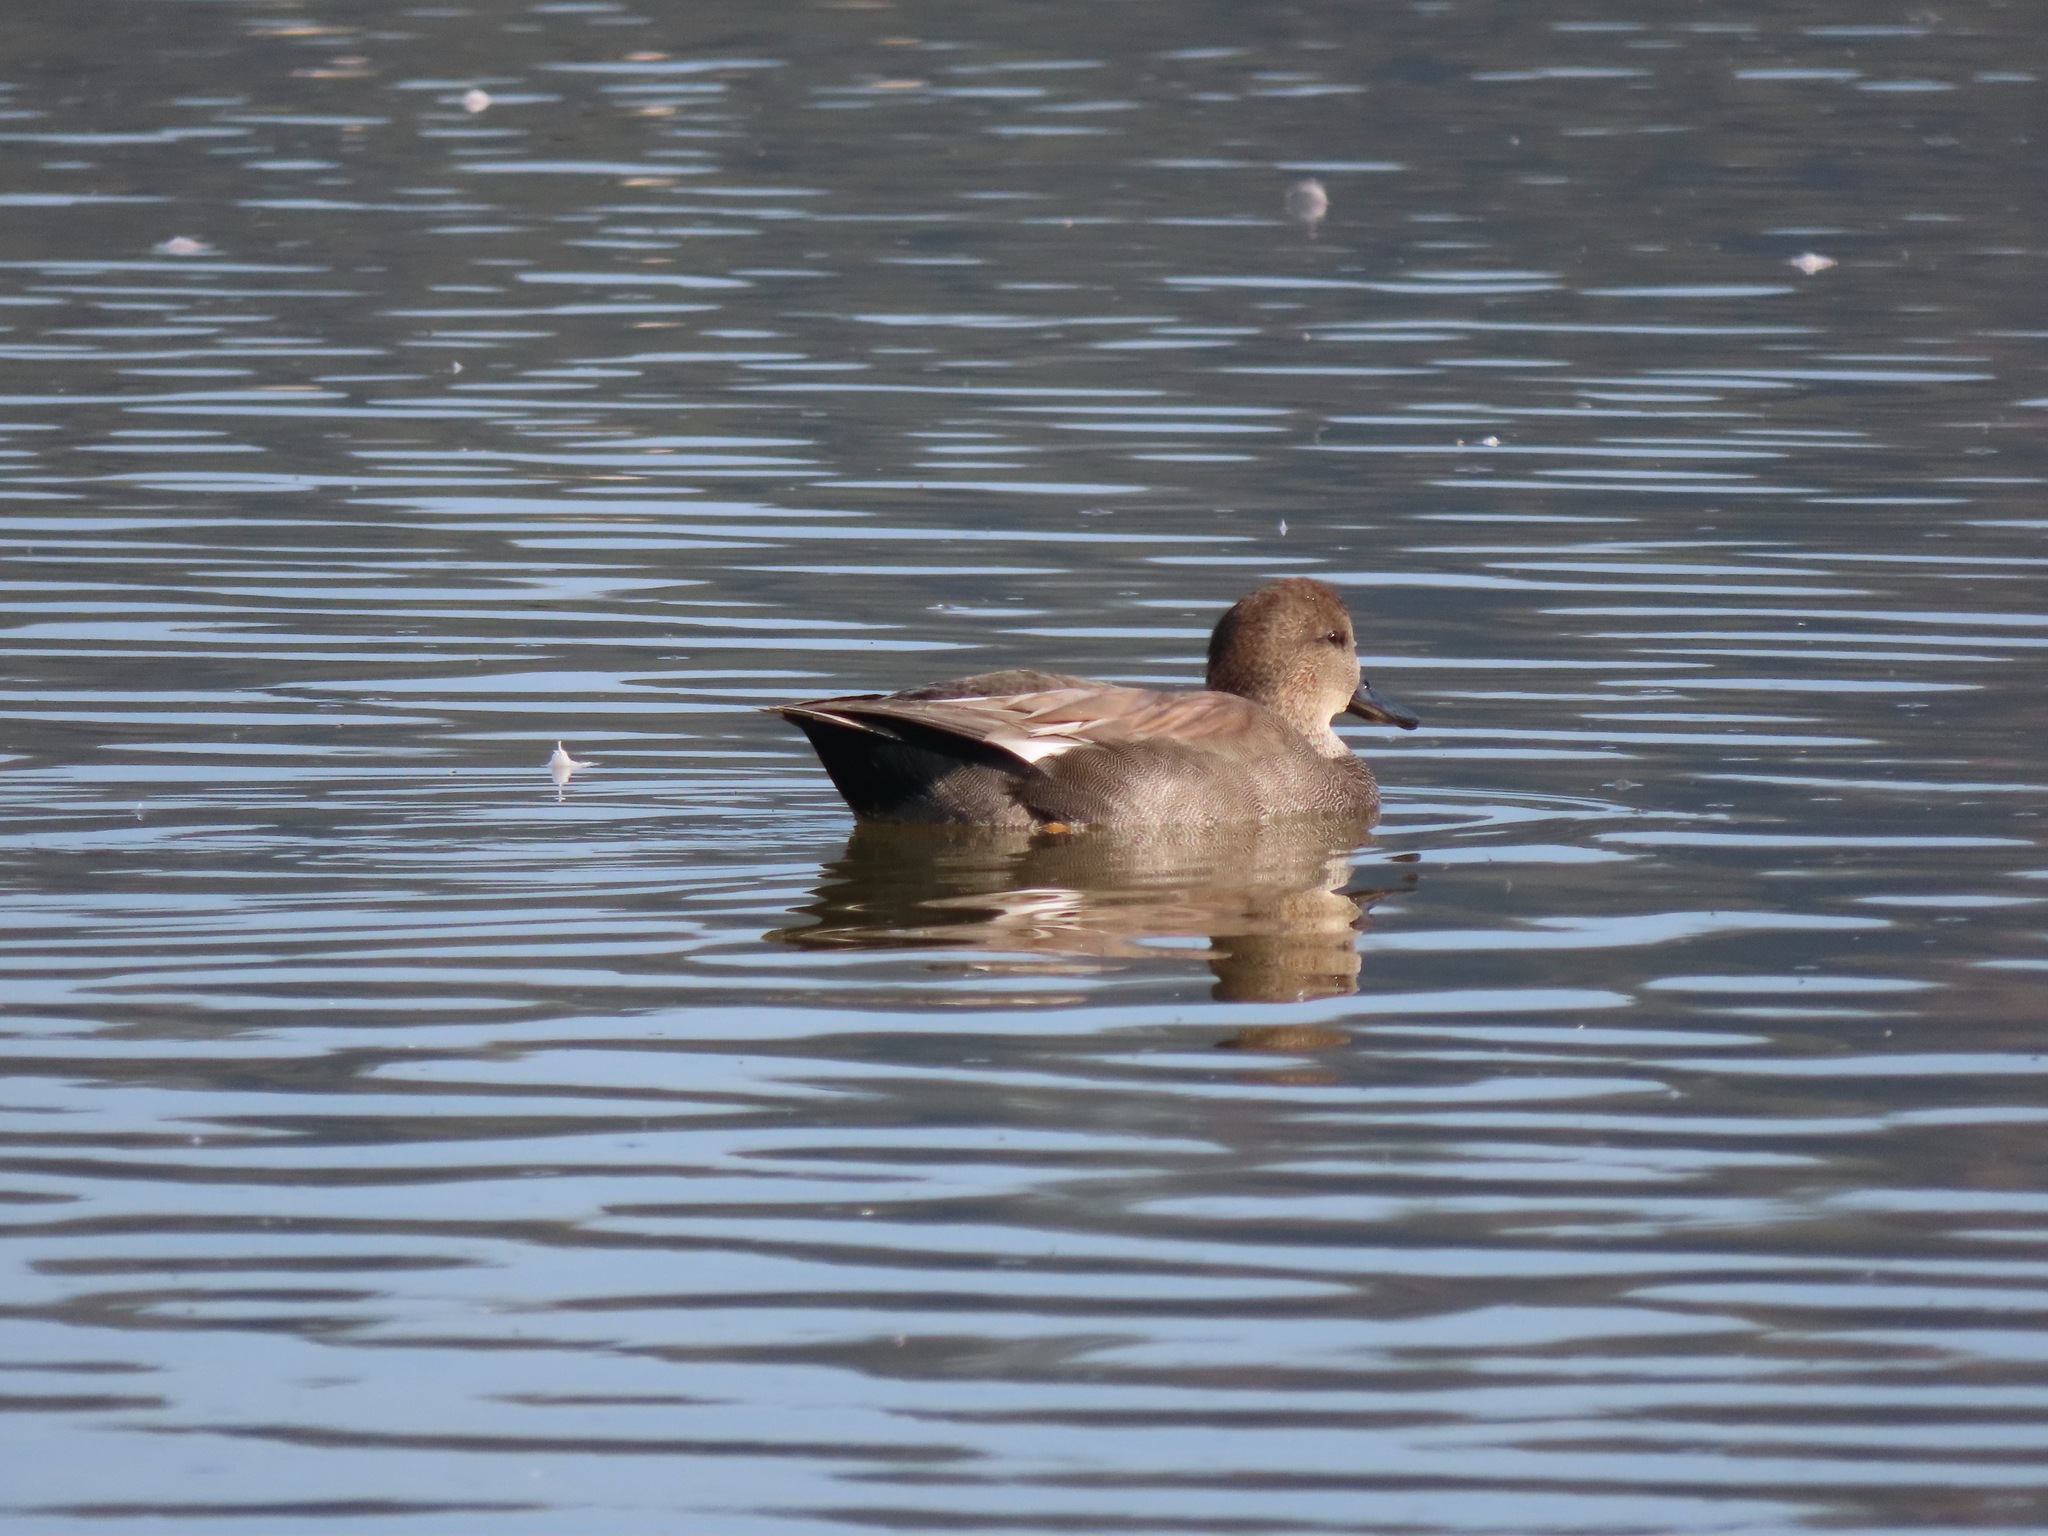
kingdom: Animalia
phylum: Chordata
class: Aves
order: Anseriformes
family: Anatidae
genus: Mareca
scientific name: Mareca strepera
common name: Gadwall
